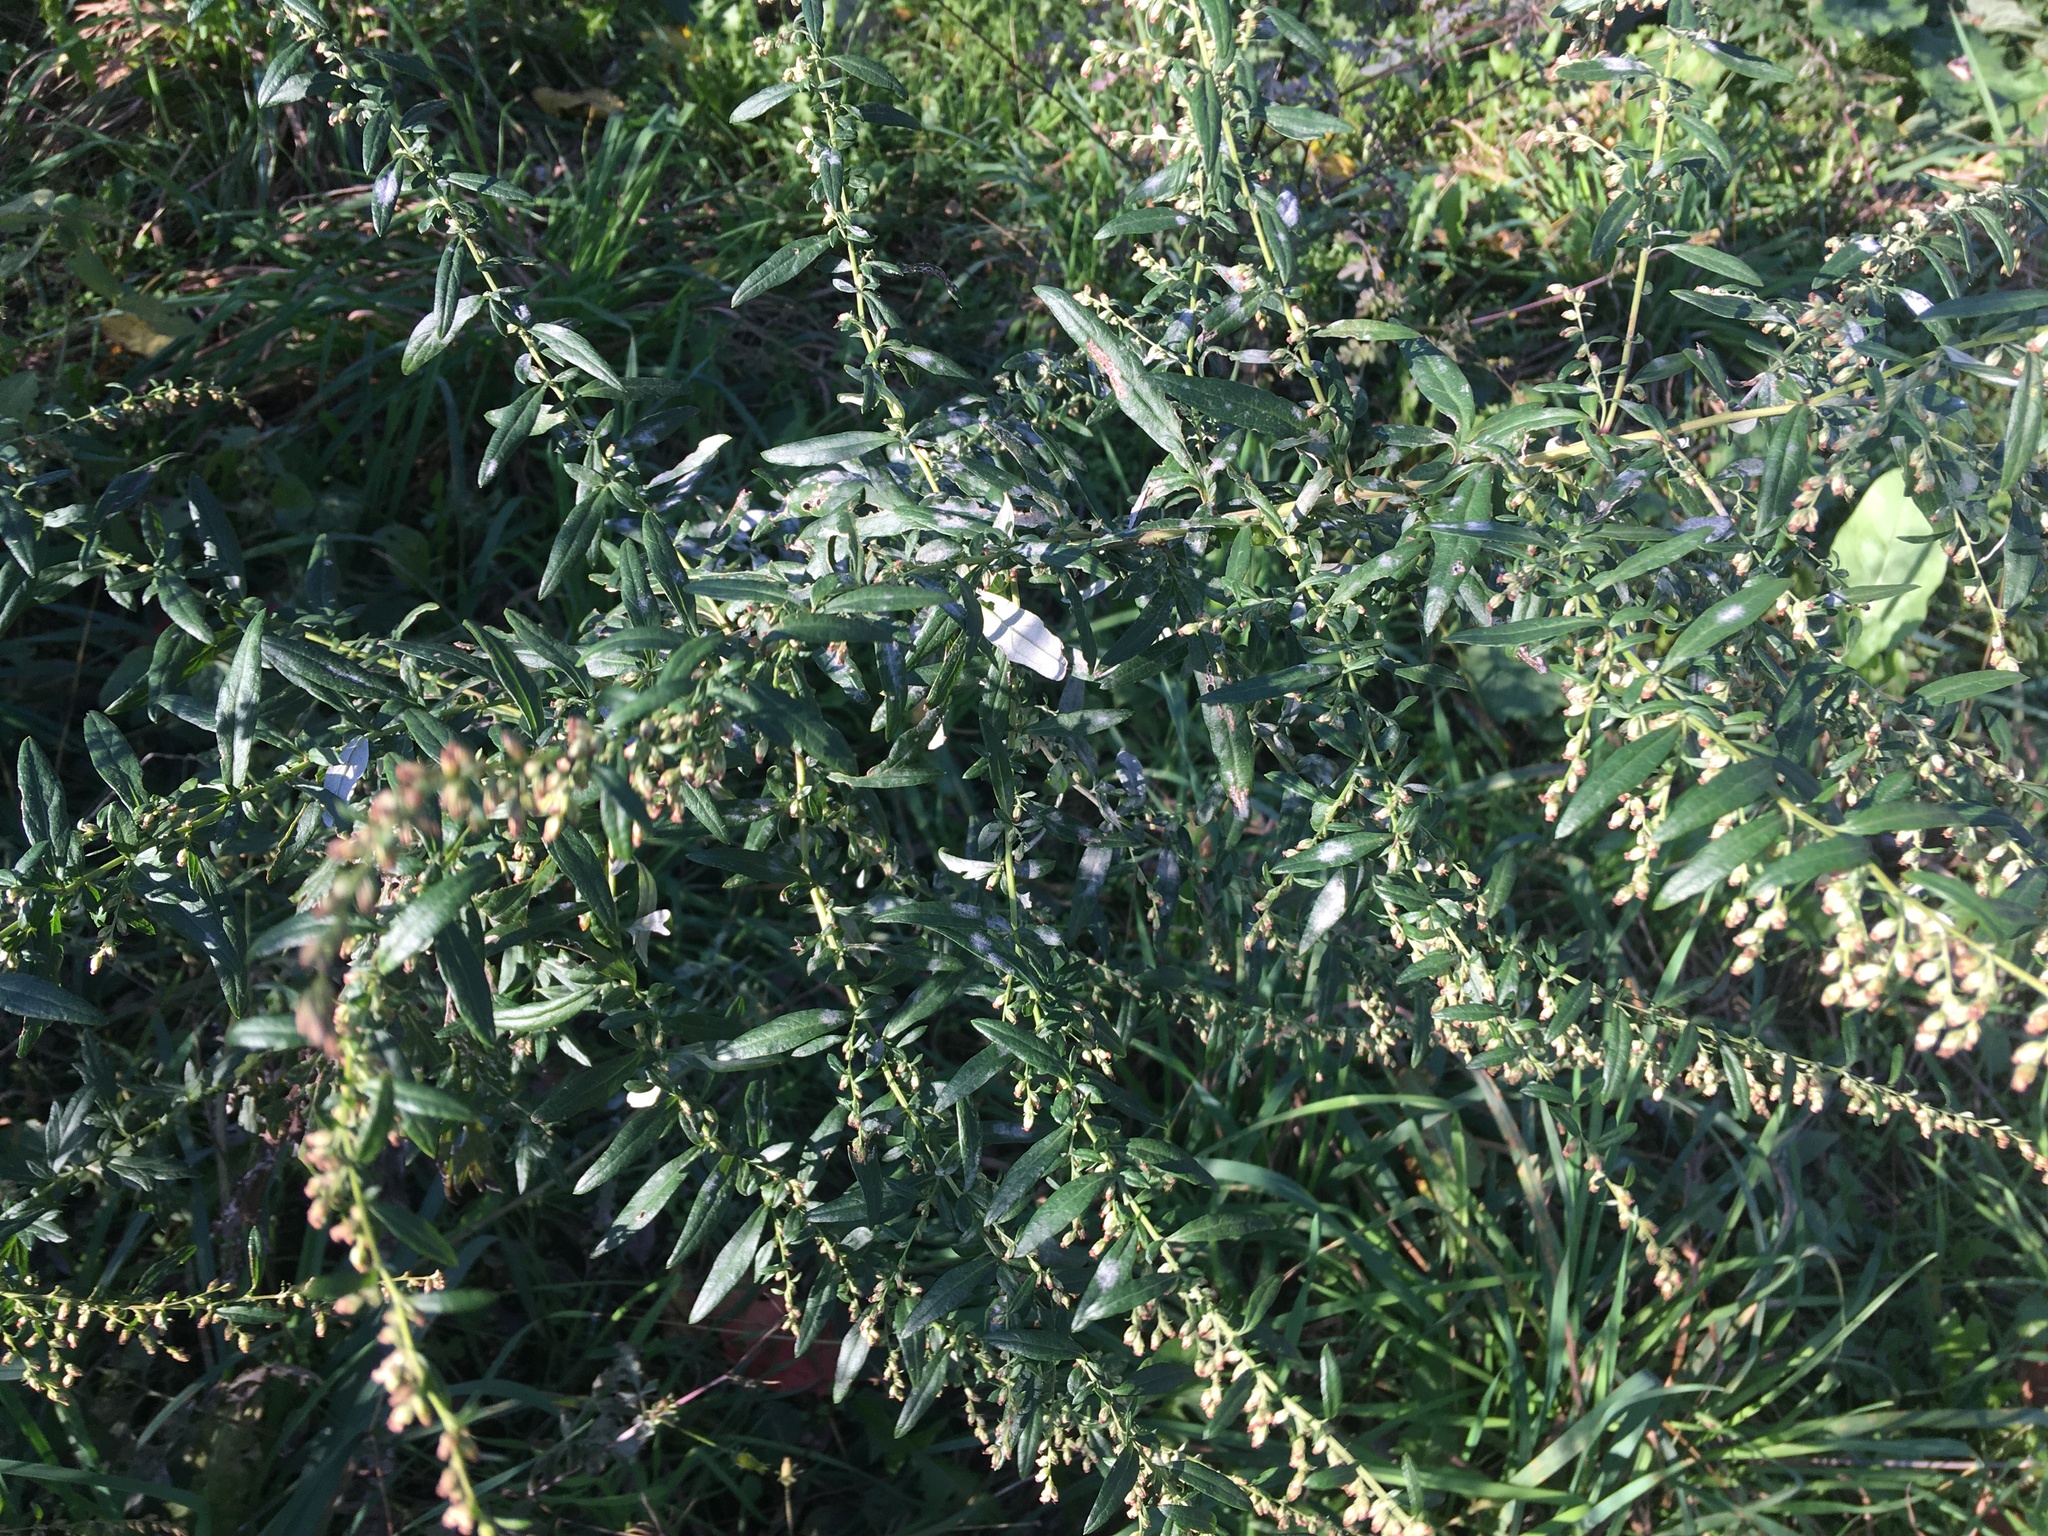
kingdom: Plantae
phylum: Tracheophyta
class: Magnoliopsida
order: Asterales
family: Asteraceae
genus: Artemisia
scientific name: Artemisia vulgaris
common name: Mugwort
